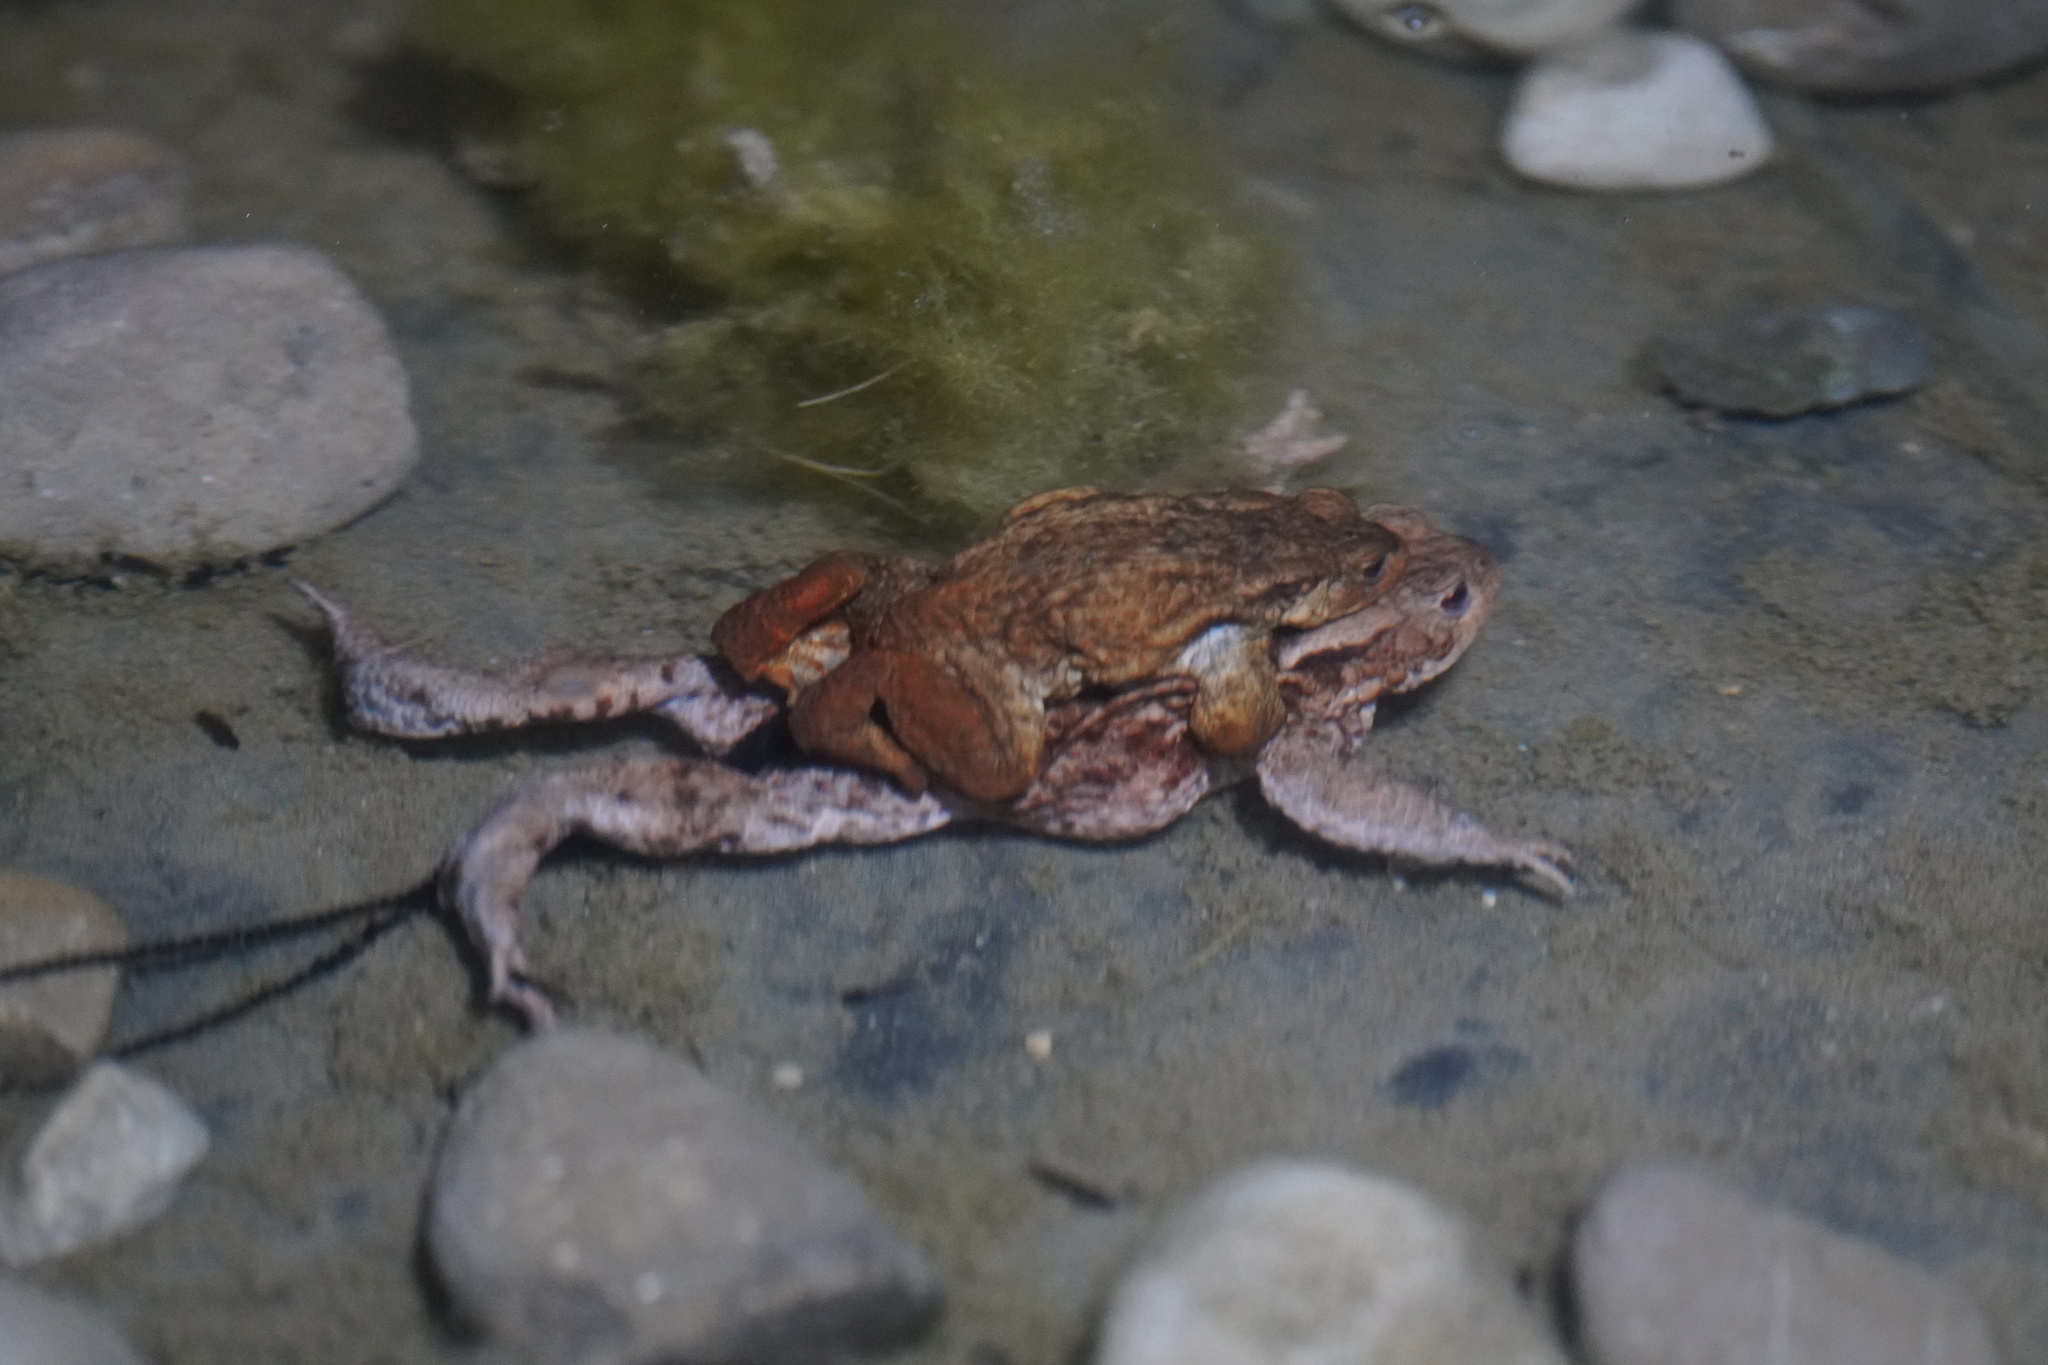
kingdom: Animalia
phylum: Chordata
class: Amphibia
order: Anura
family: Bufonidae
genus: Bufo
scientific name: Bufo bufo
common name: Common toad
